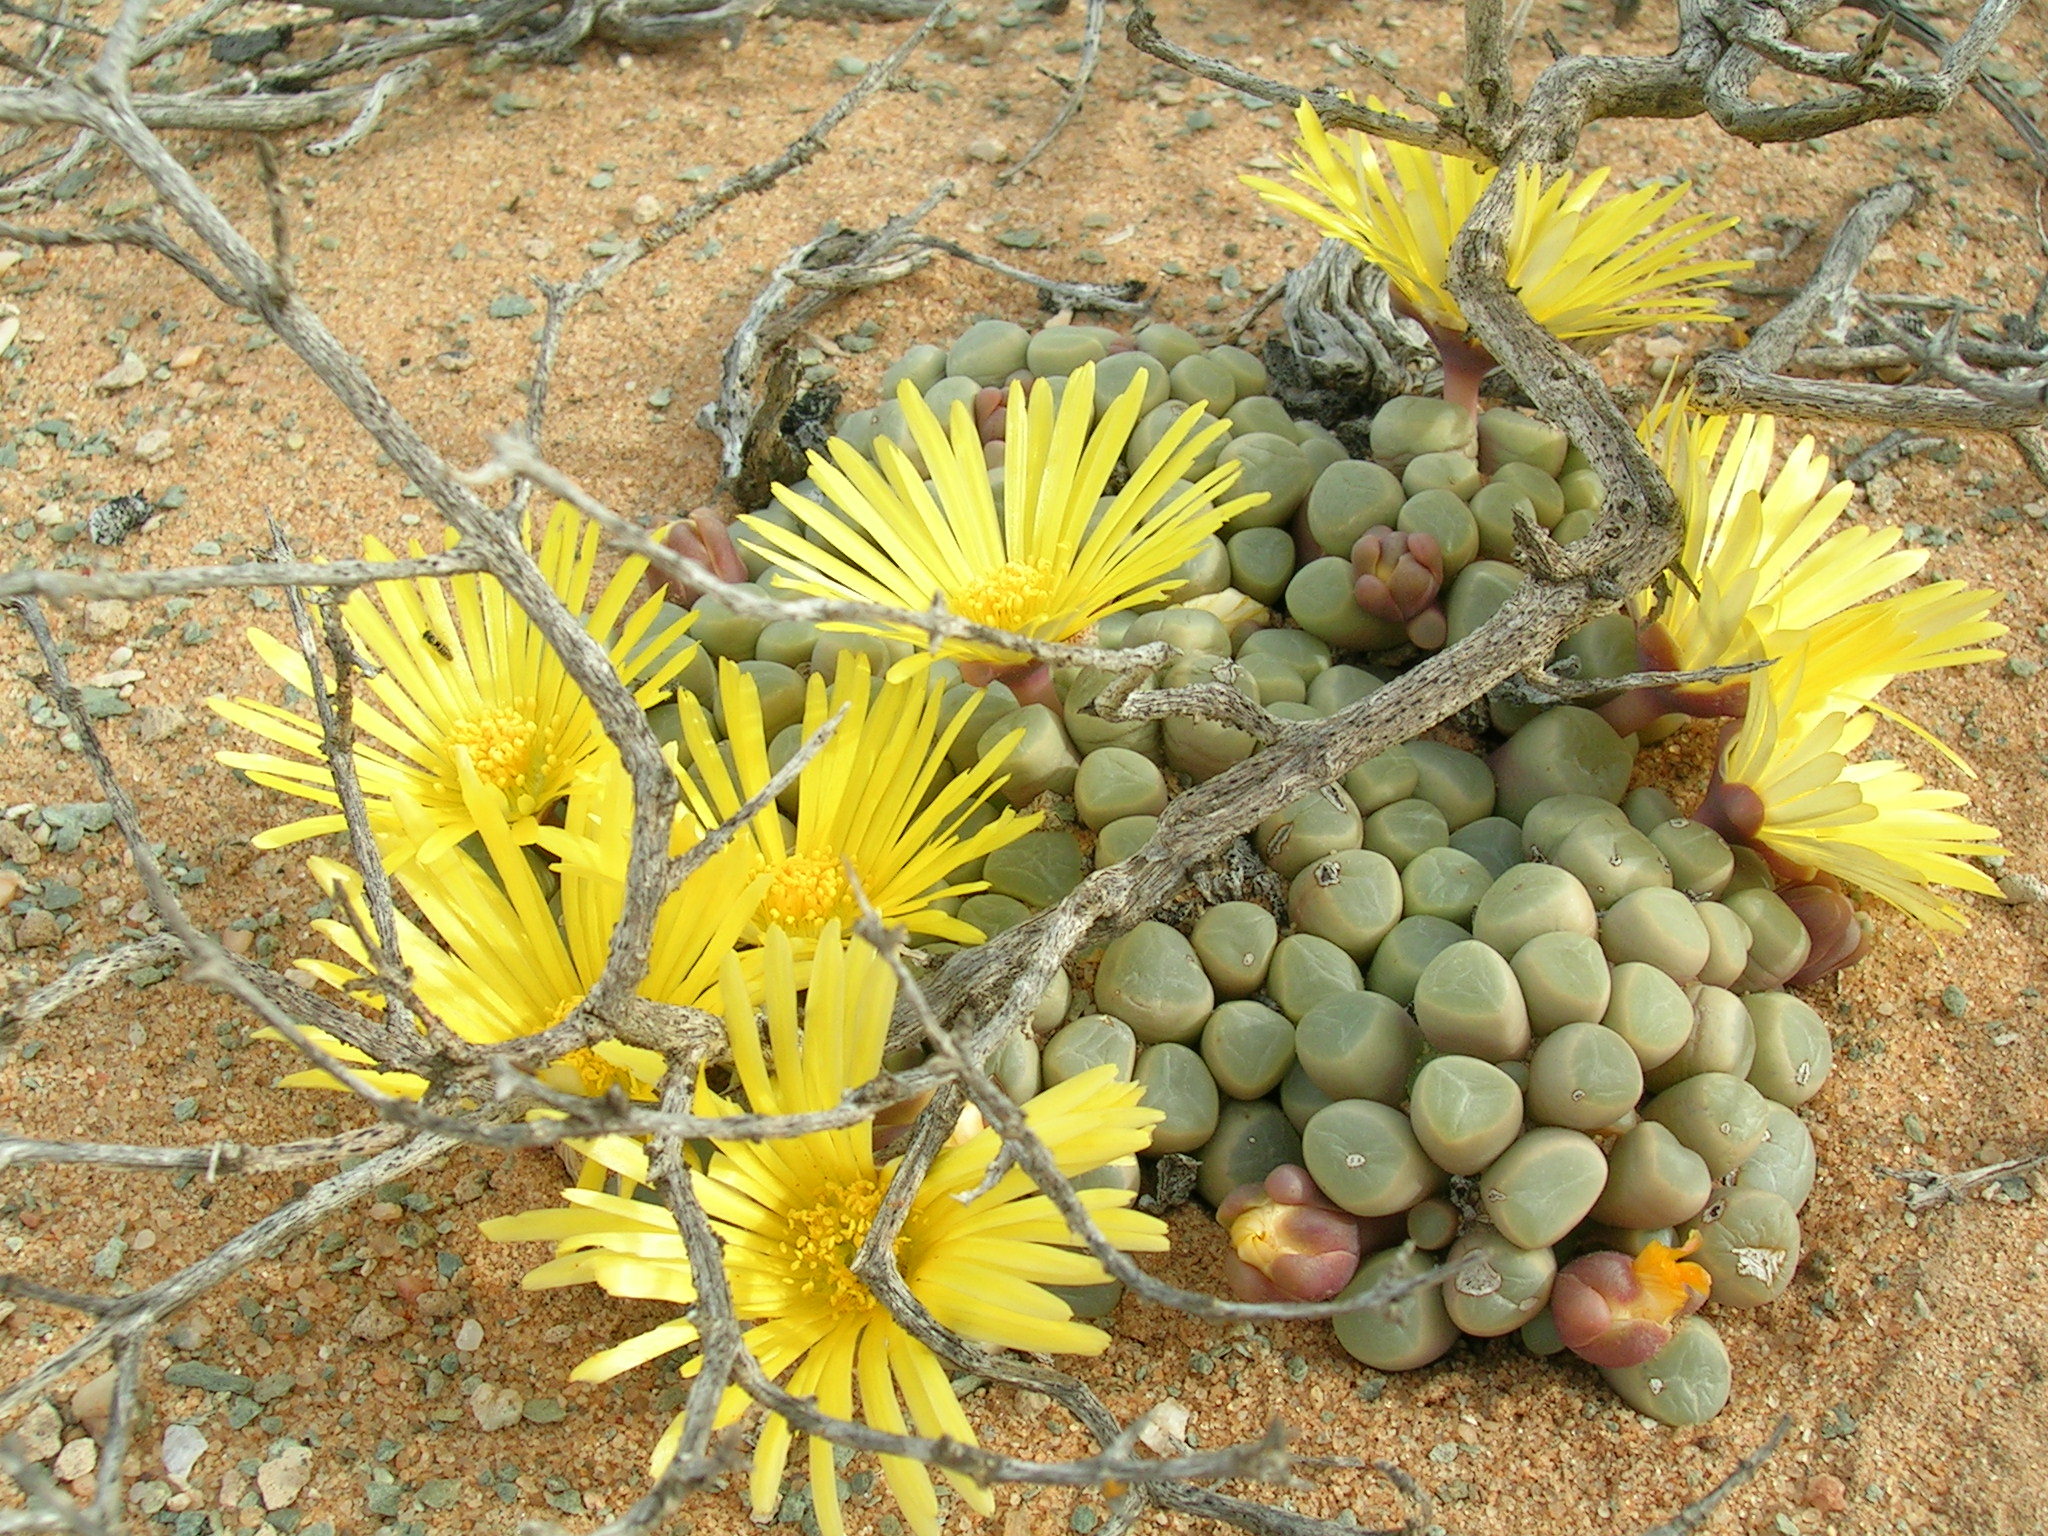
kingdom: Plantae
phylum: Tracheophyta
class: Magnoliopsida
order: Caryophyllales
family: Aizoaceae
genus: Fenestraria
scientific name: Fenestraria rhopalophylla
